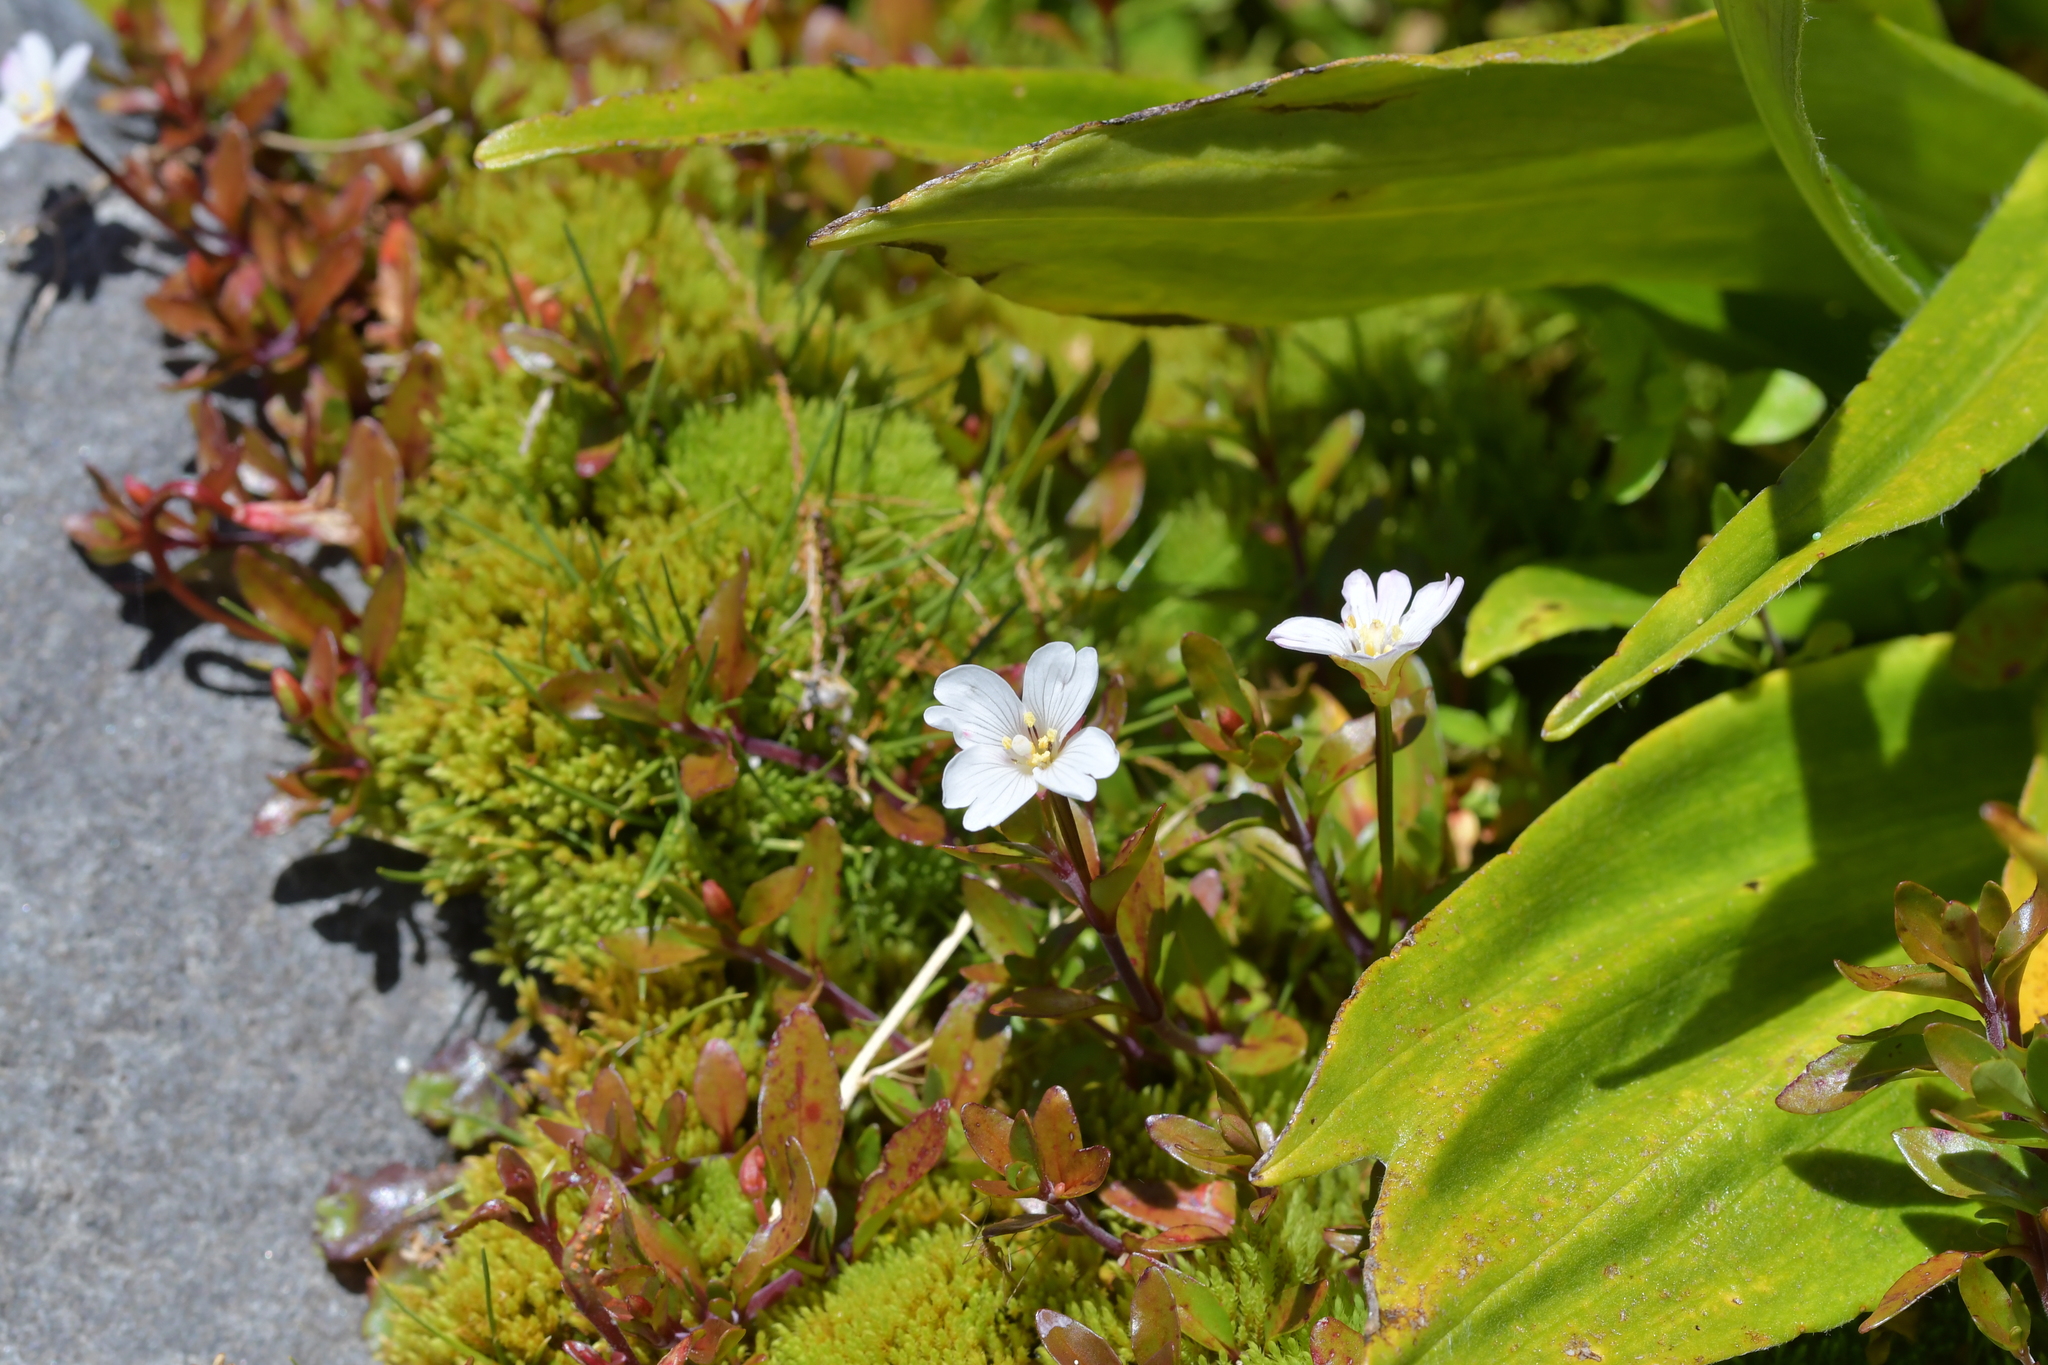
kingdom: Plantae
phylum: Tracheophyta
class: Magnoliopsida
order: Myrtales
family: Onagraceae
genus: Epilobium
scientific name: Epilobium macropus
